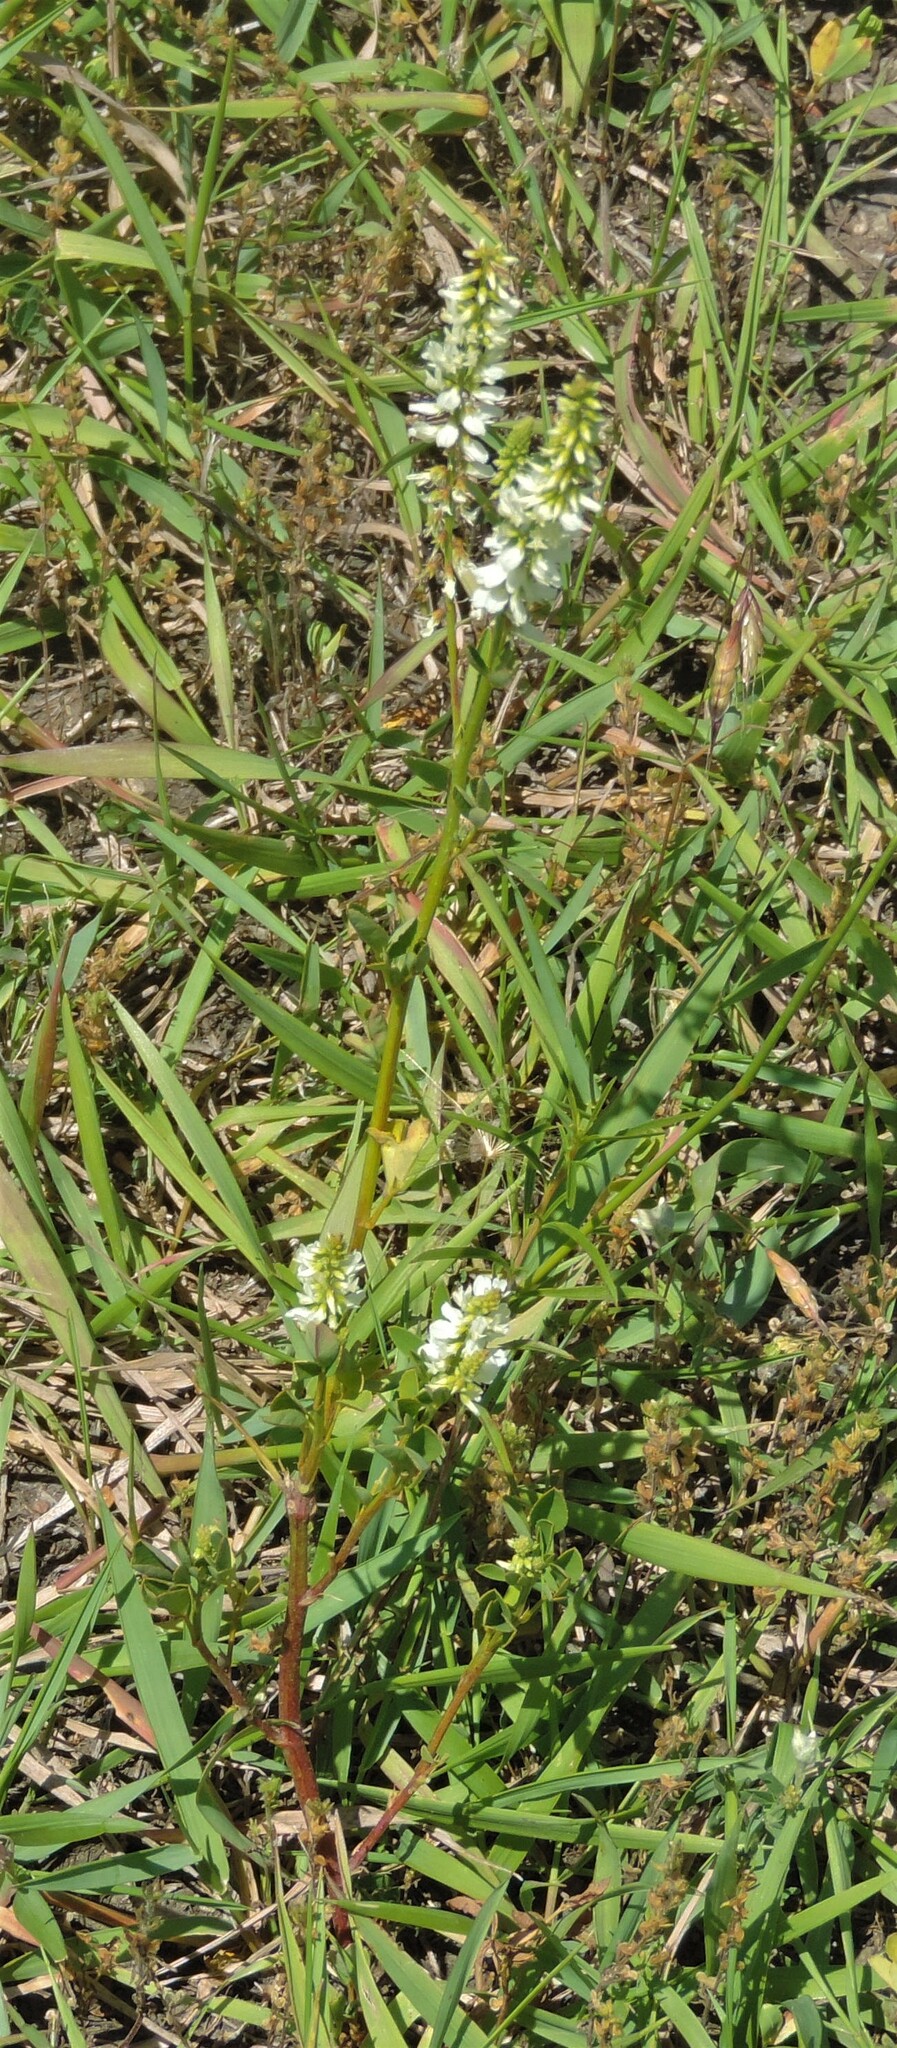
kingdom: Plantae
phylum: Tracheophyta
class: Magnoliopsida
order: Fabales
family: Fabaceae
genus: Melilotus
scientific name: Melilotus albus
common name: White melilot
